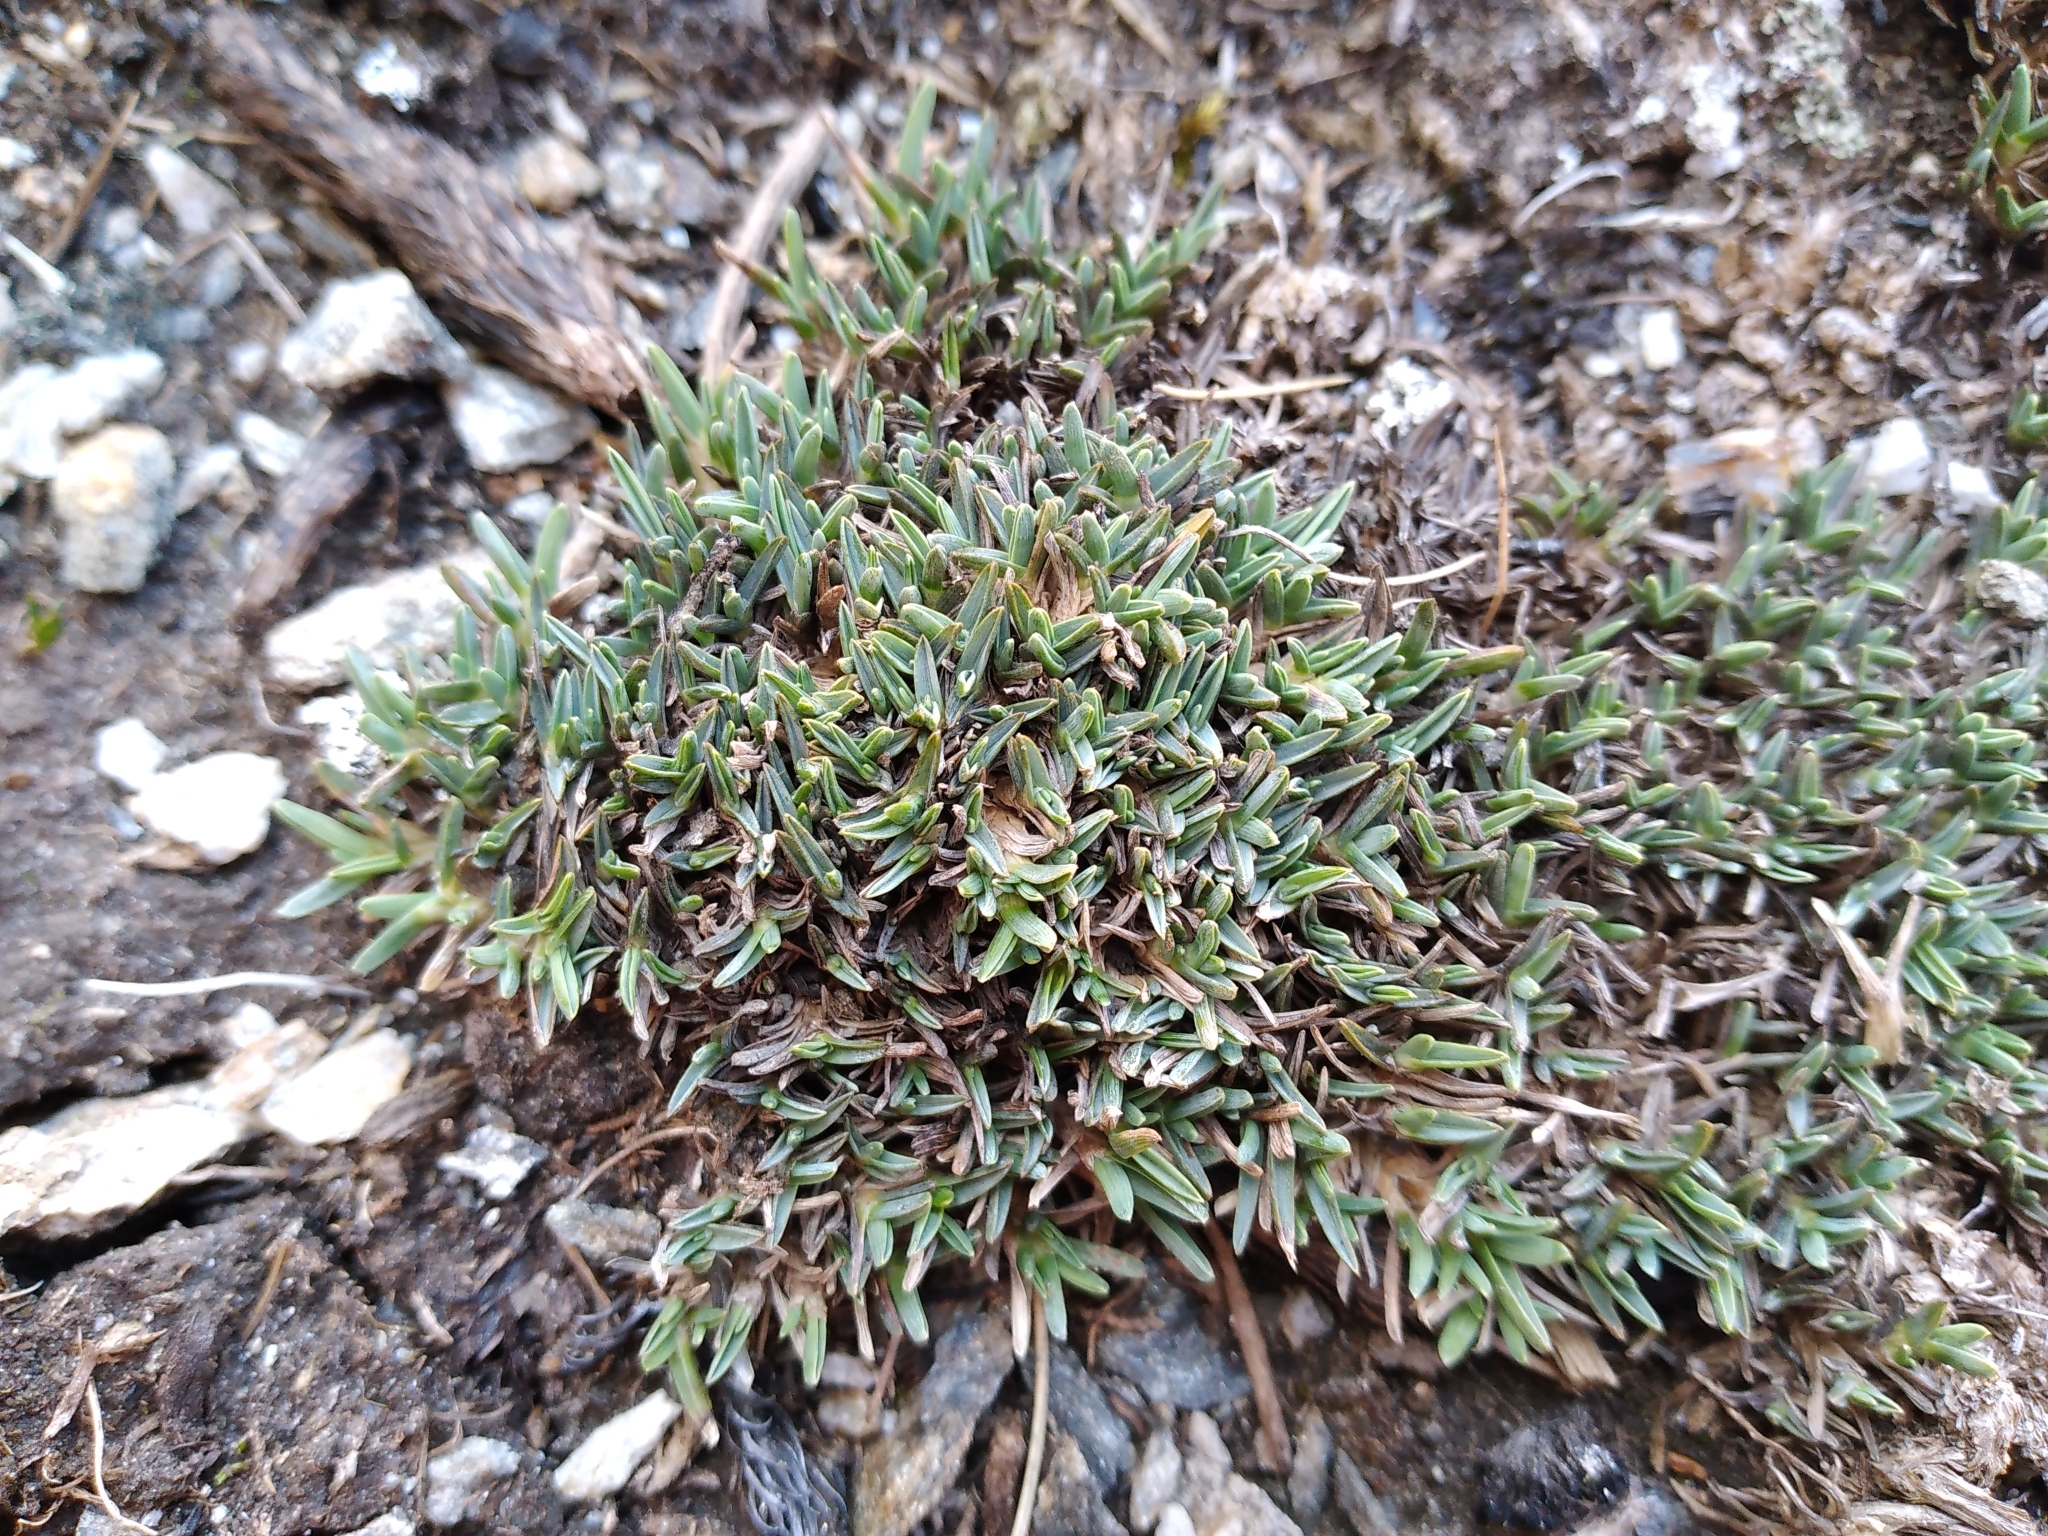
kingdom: Plantae
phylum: Tracheophyta
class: Liliopsida
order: Poales
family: Poaceae
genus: Poa
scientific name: Poa pygmaea
